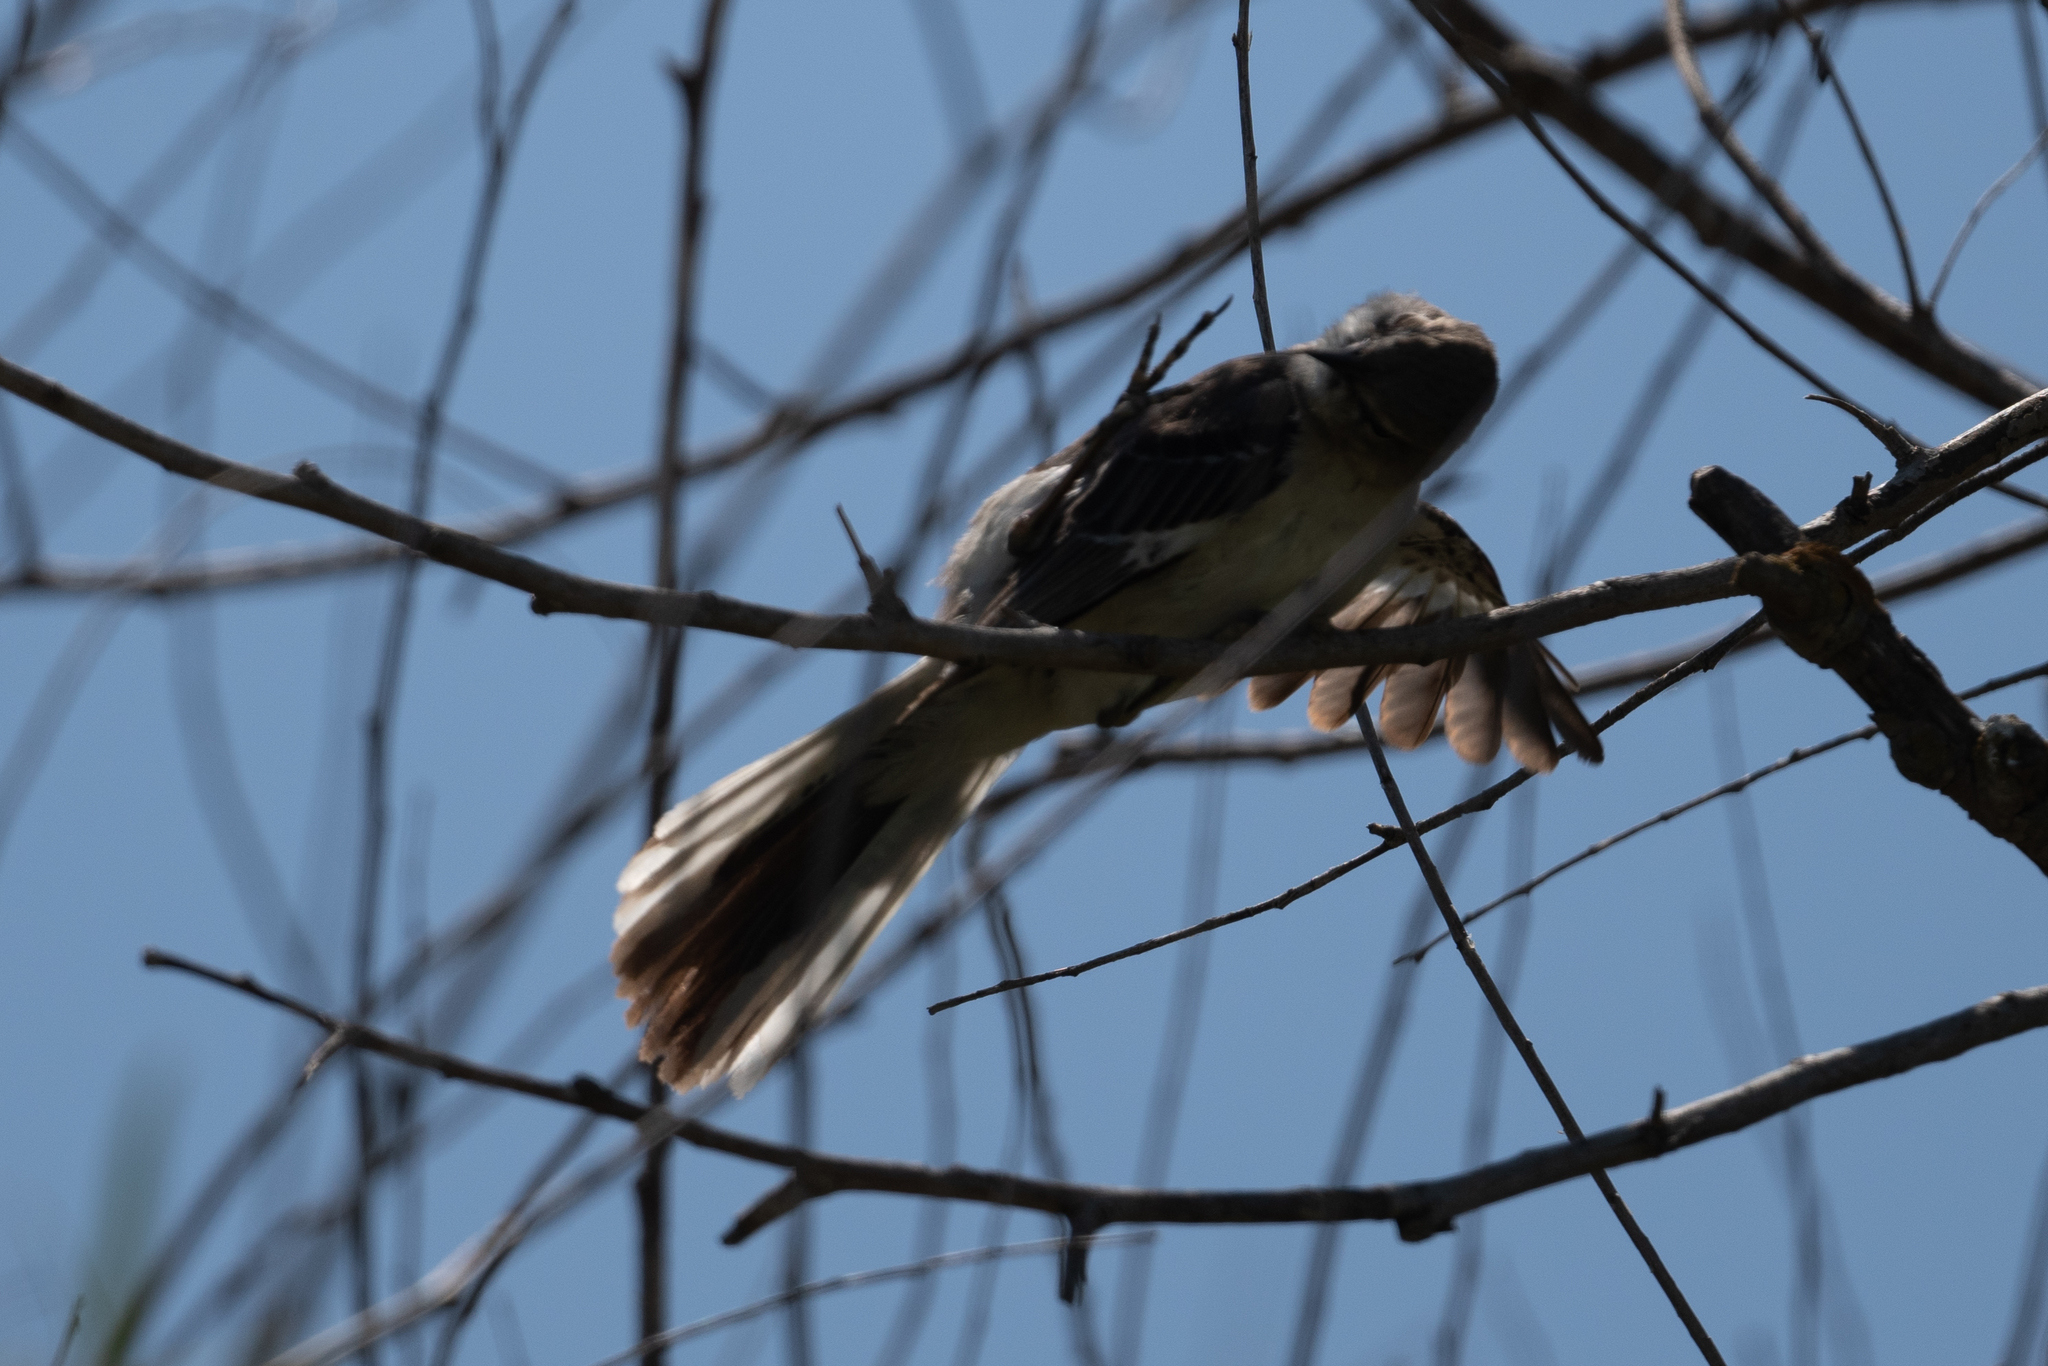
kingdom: Animalia
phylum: Chordata
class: Aves
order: Passeriformes
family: Mimidae
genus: Mimus
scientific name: Mimus polyglottos
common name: Northern mockingbird
